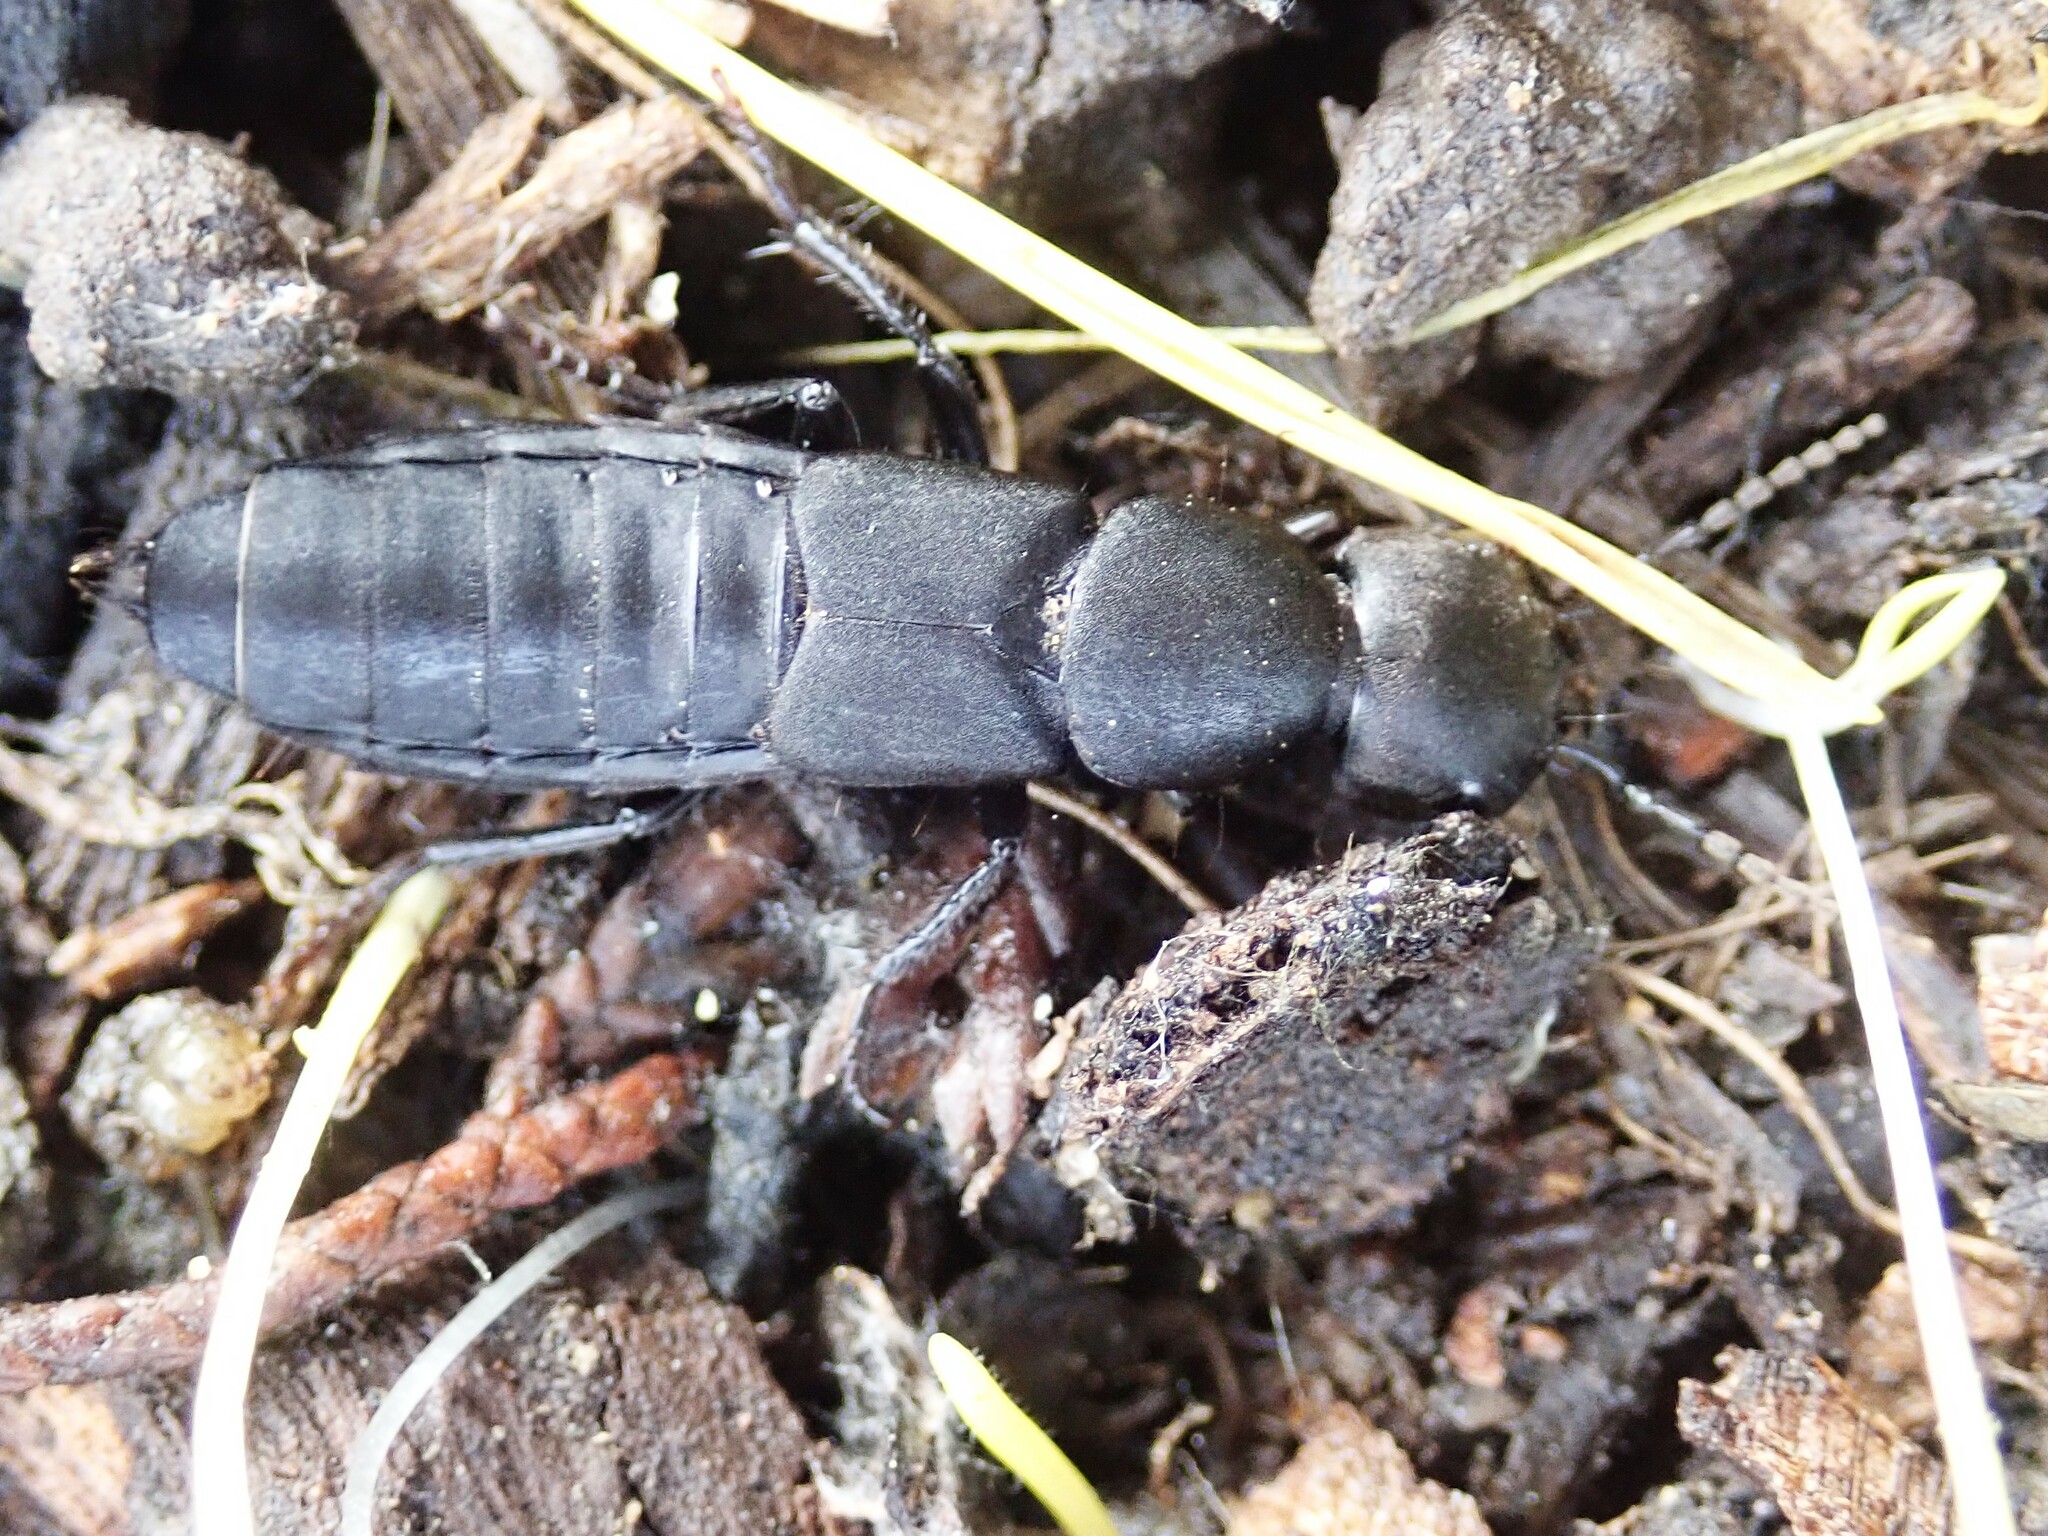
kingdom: Animalia
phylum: Arthropoda
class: Insecta
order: Coleoptera
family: Staphylinidae
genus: Ocypus
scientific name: Ocypus olens
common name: Devil's coach-horse
